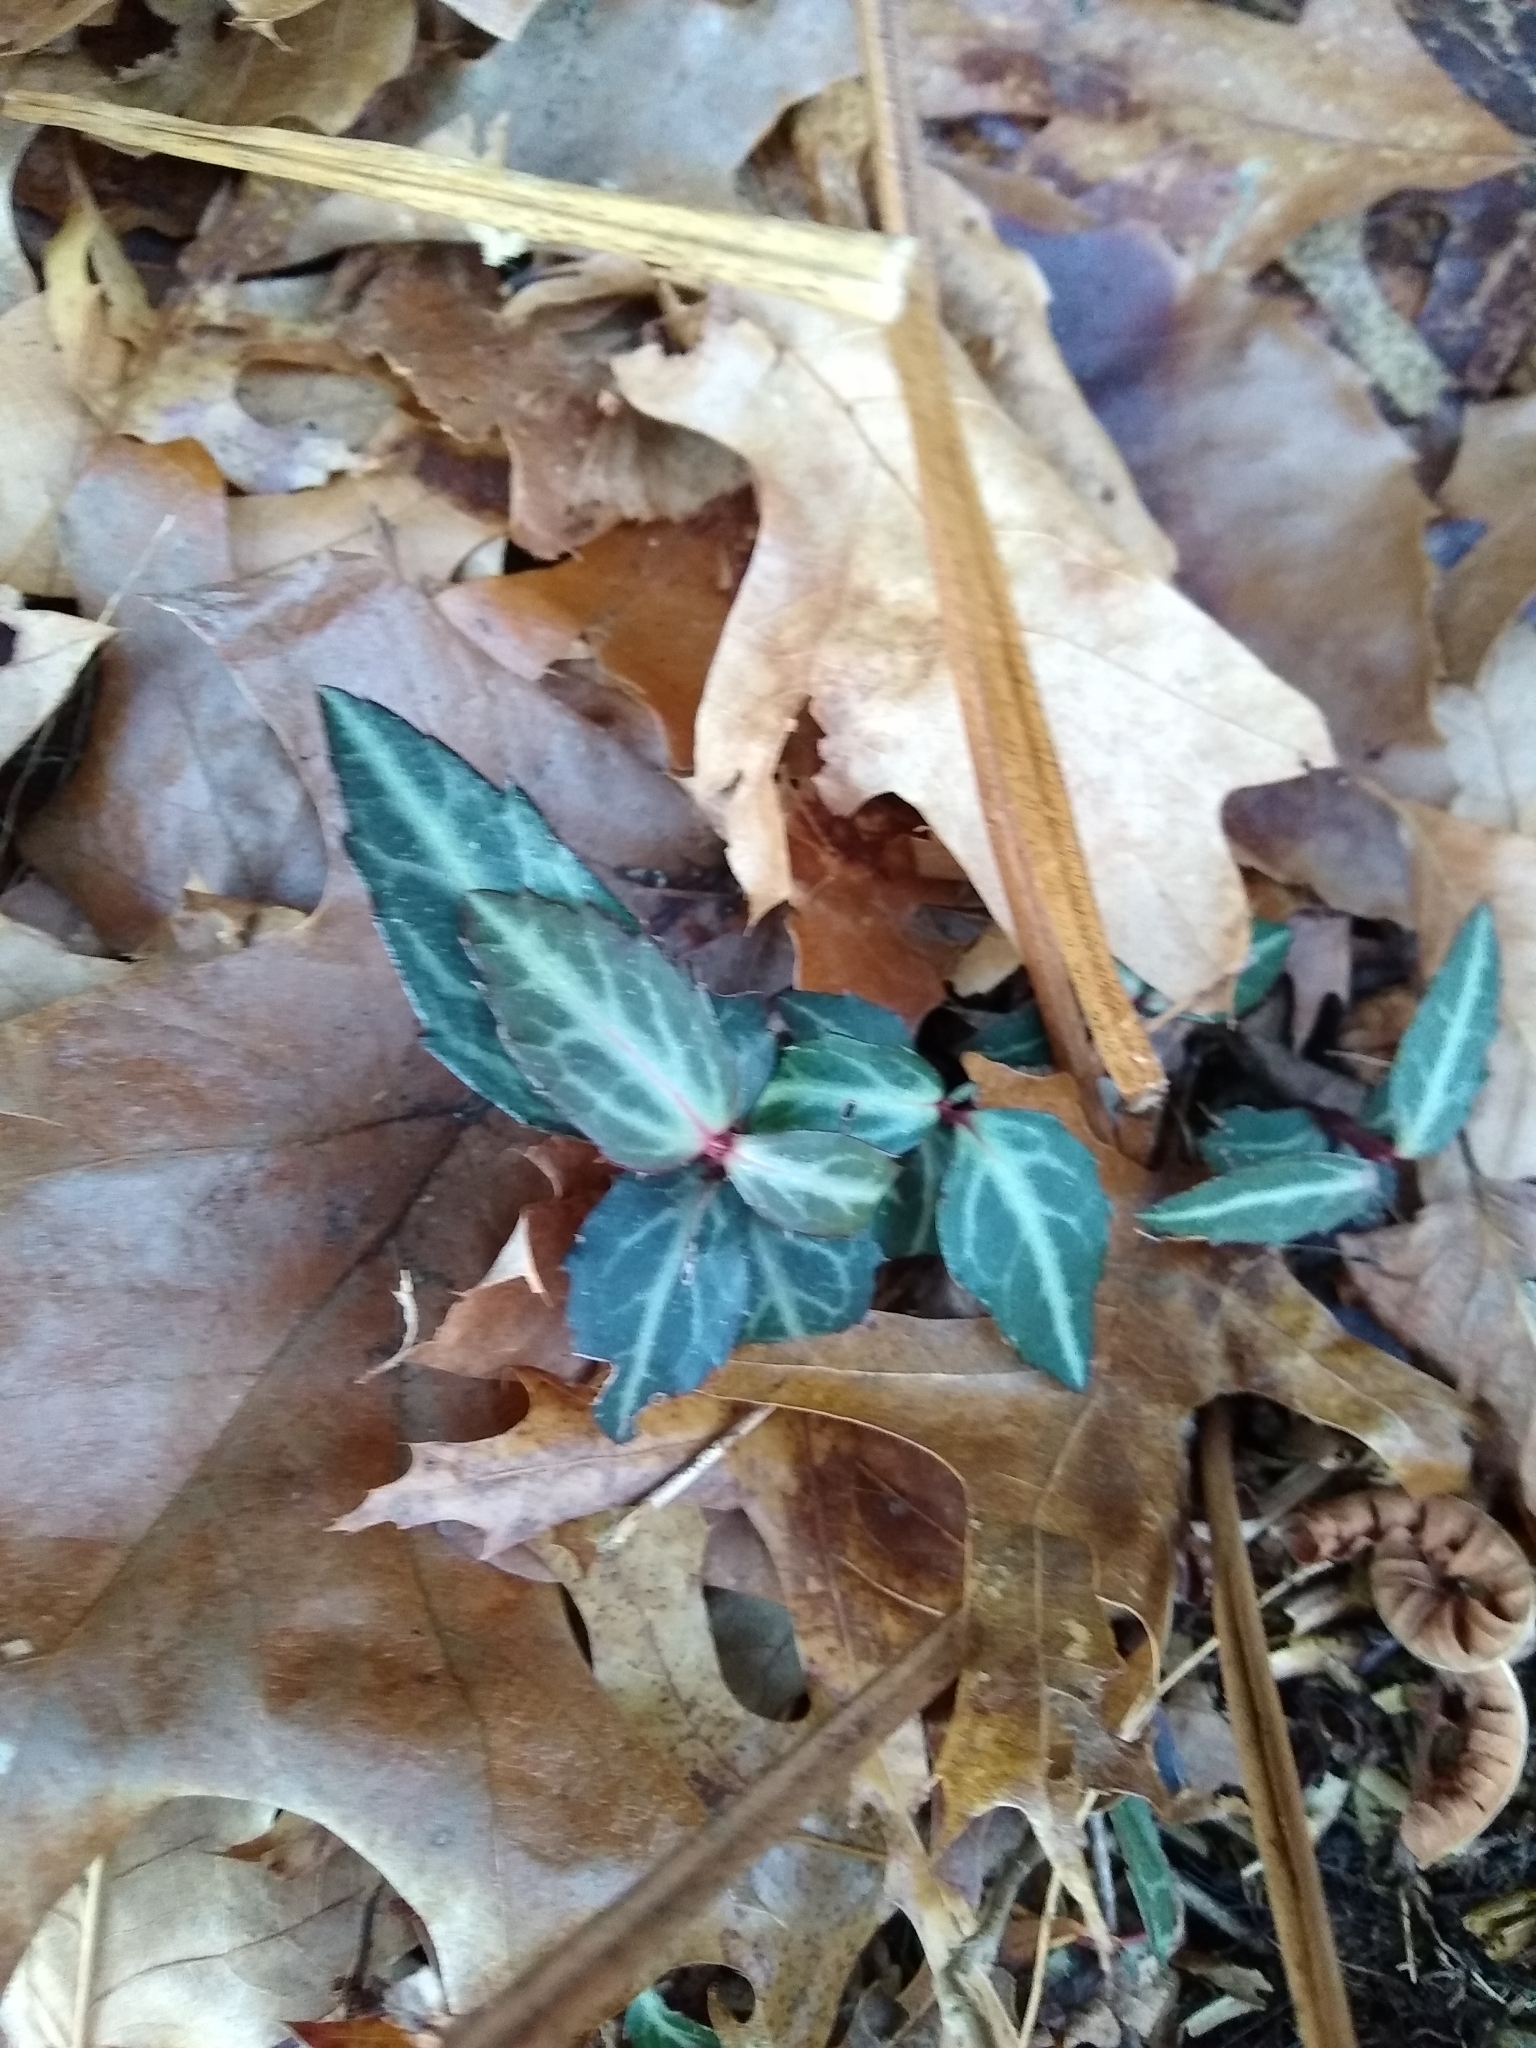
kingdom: Plantae
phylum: Tracheophyta
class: Magnoliopsida
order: Ericales
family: Ericaceae
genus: Chimaphila
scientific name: Chimaphila maculata
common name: Spotted pipsissewa
